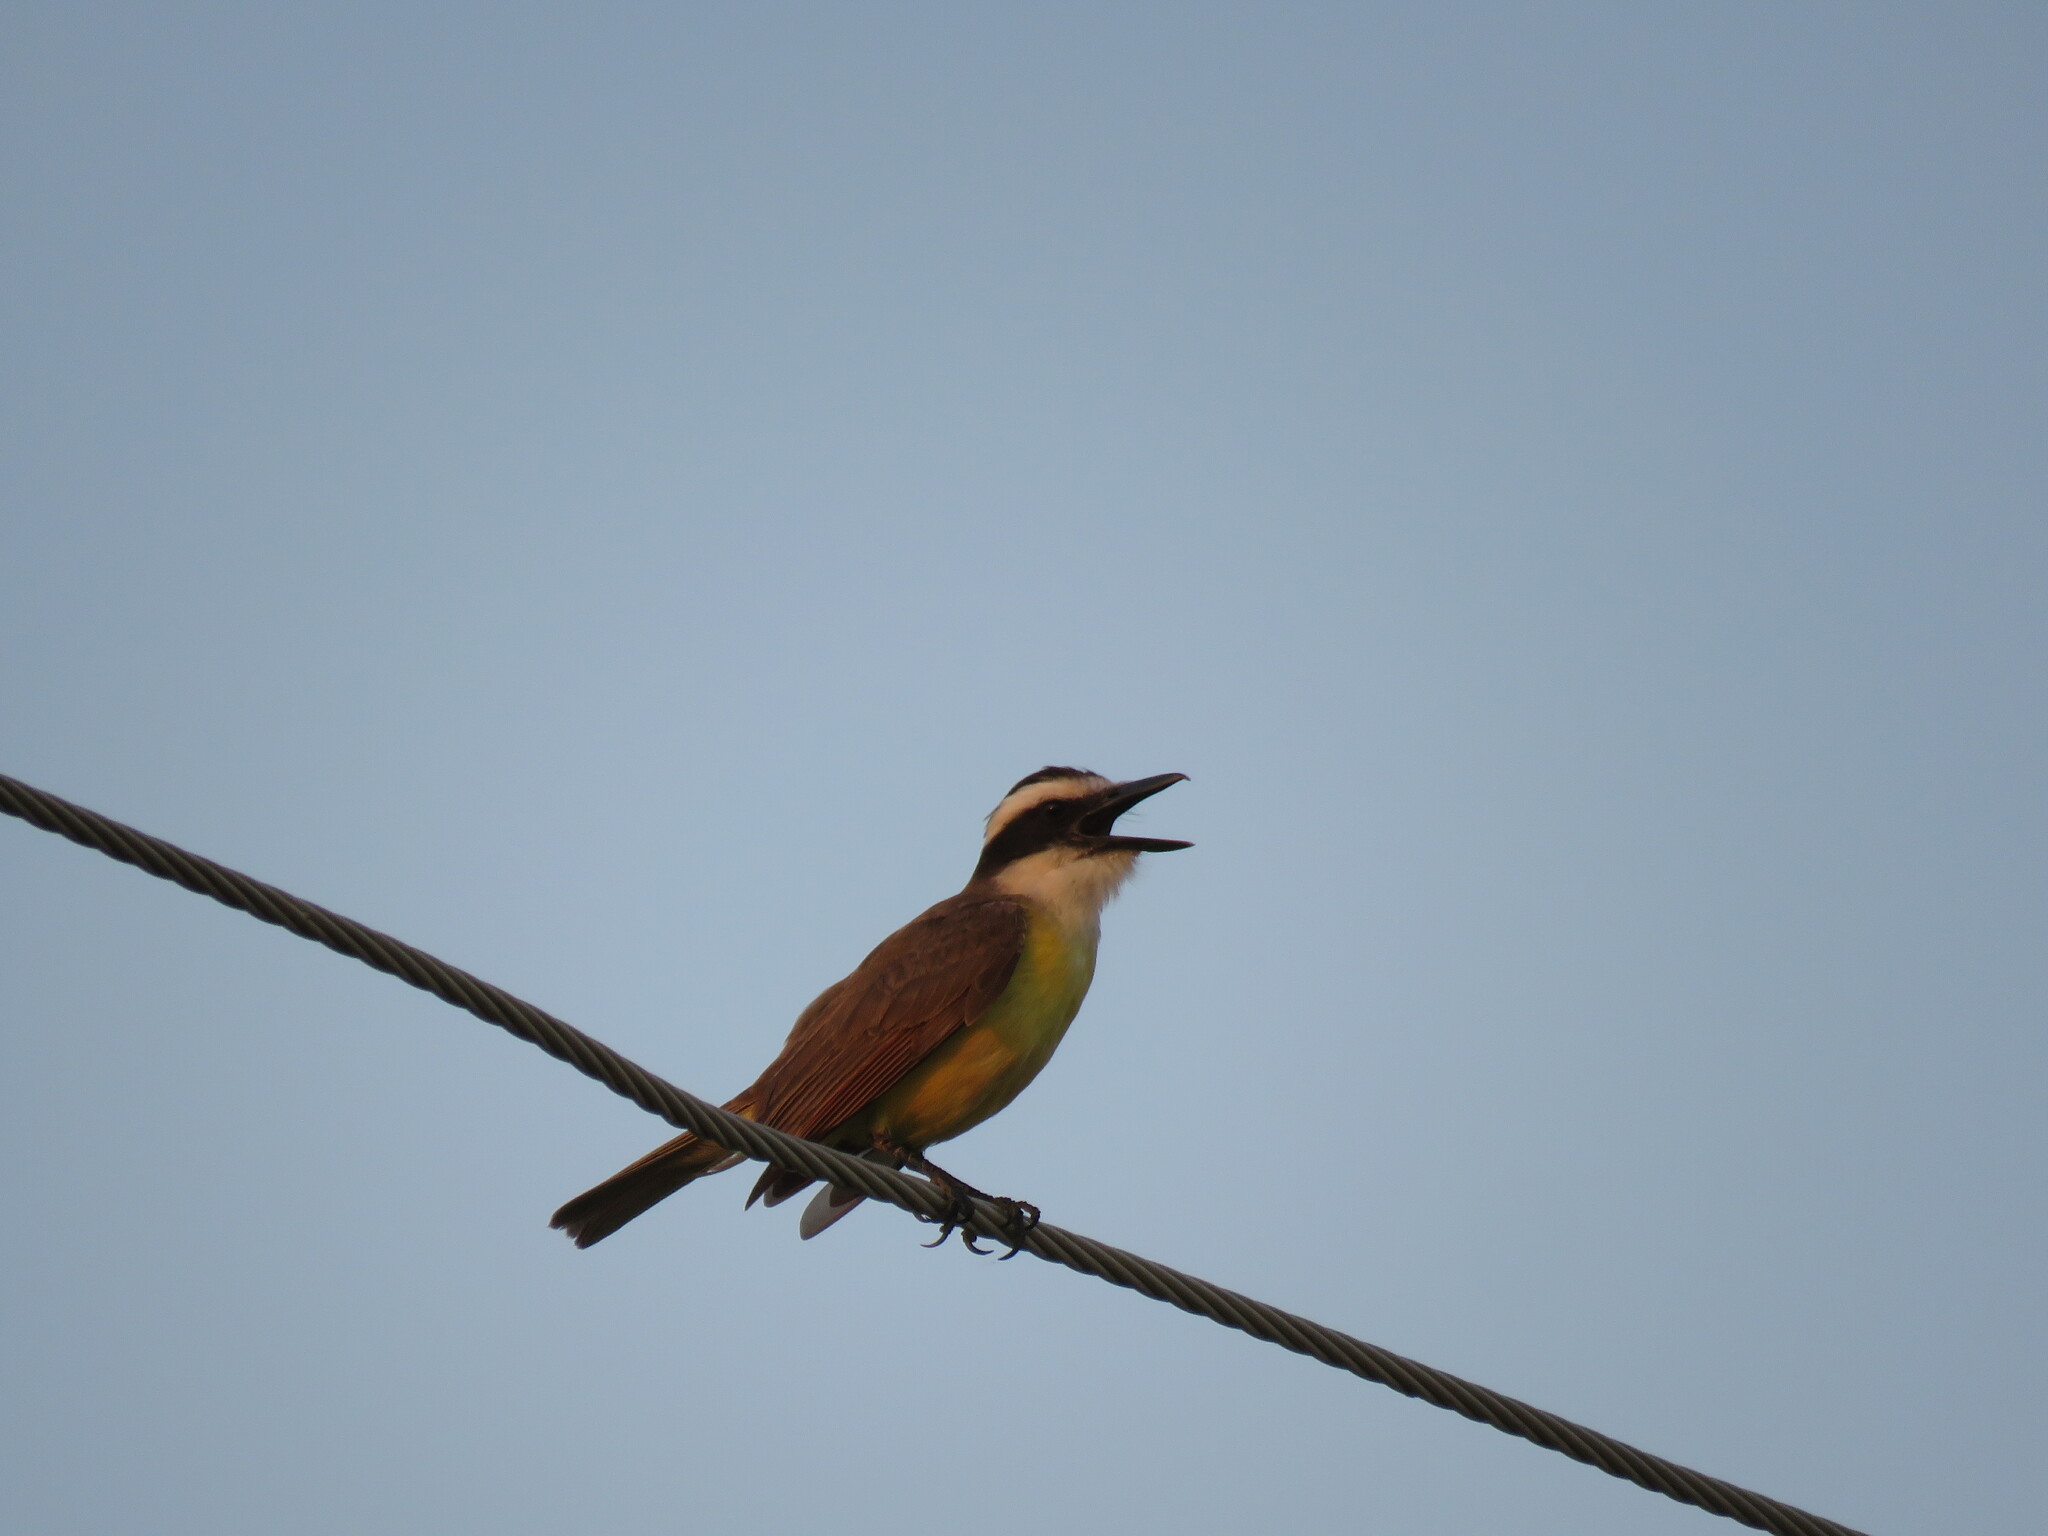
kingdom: Animalia
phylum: Chordata
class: Aves
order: Passeriformes
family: Tyrannidae
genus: Pitangus
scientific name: Pitangus sulphuratus
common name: Great kiskadee
